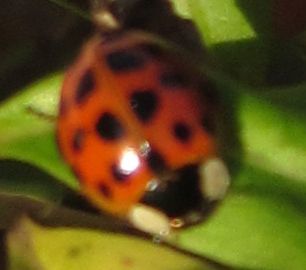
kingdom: Animalia
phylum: Arthropoda
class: Insecta
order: Coleoptera
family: Coccinellidae
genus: Harmonia
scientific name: Harmonia axyridis
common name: Harlequin ladybird
